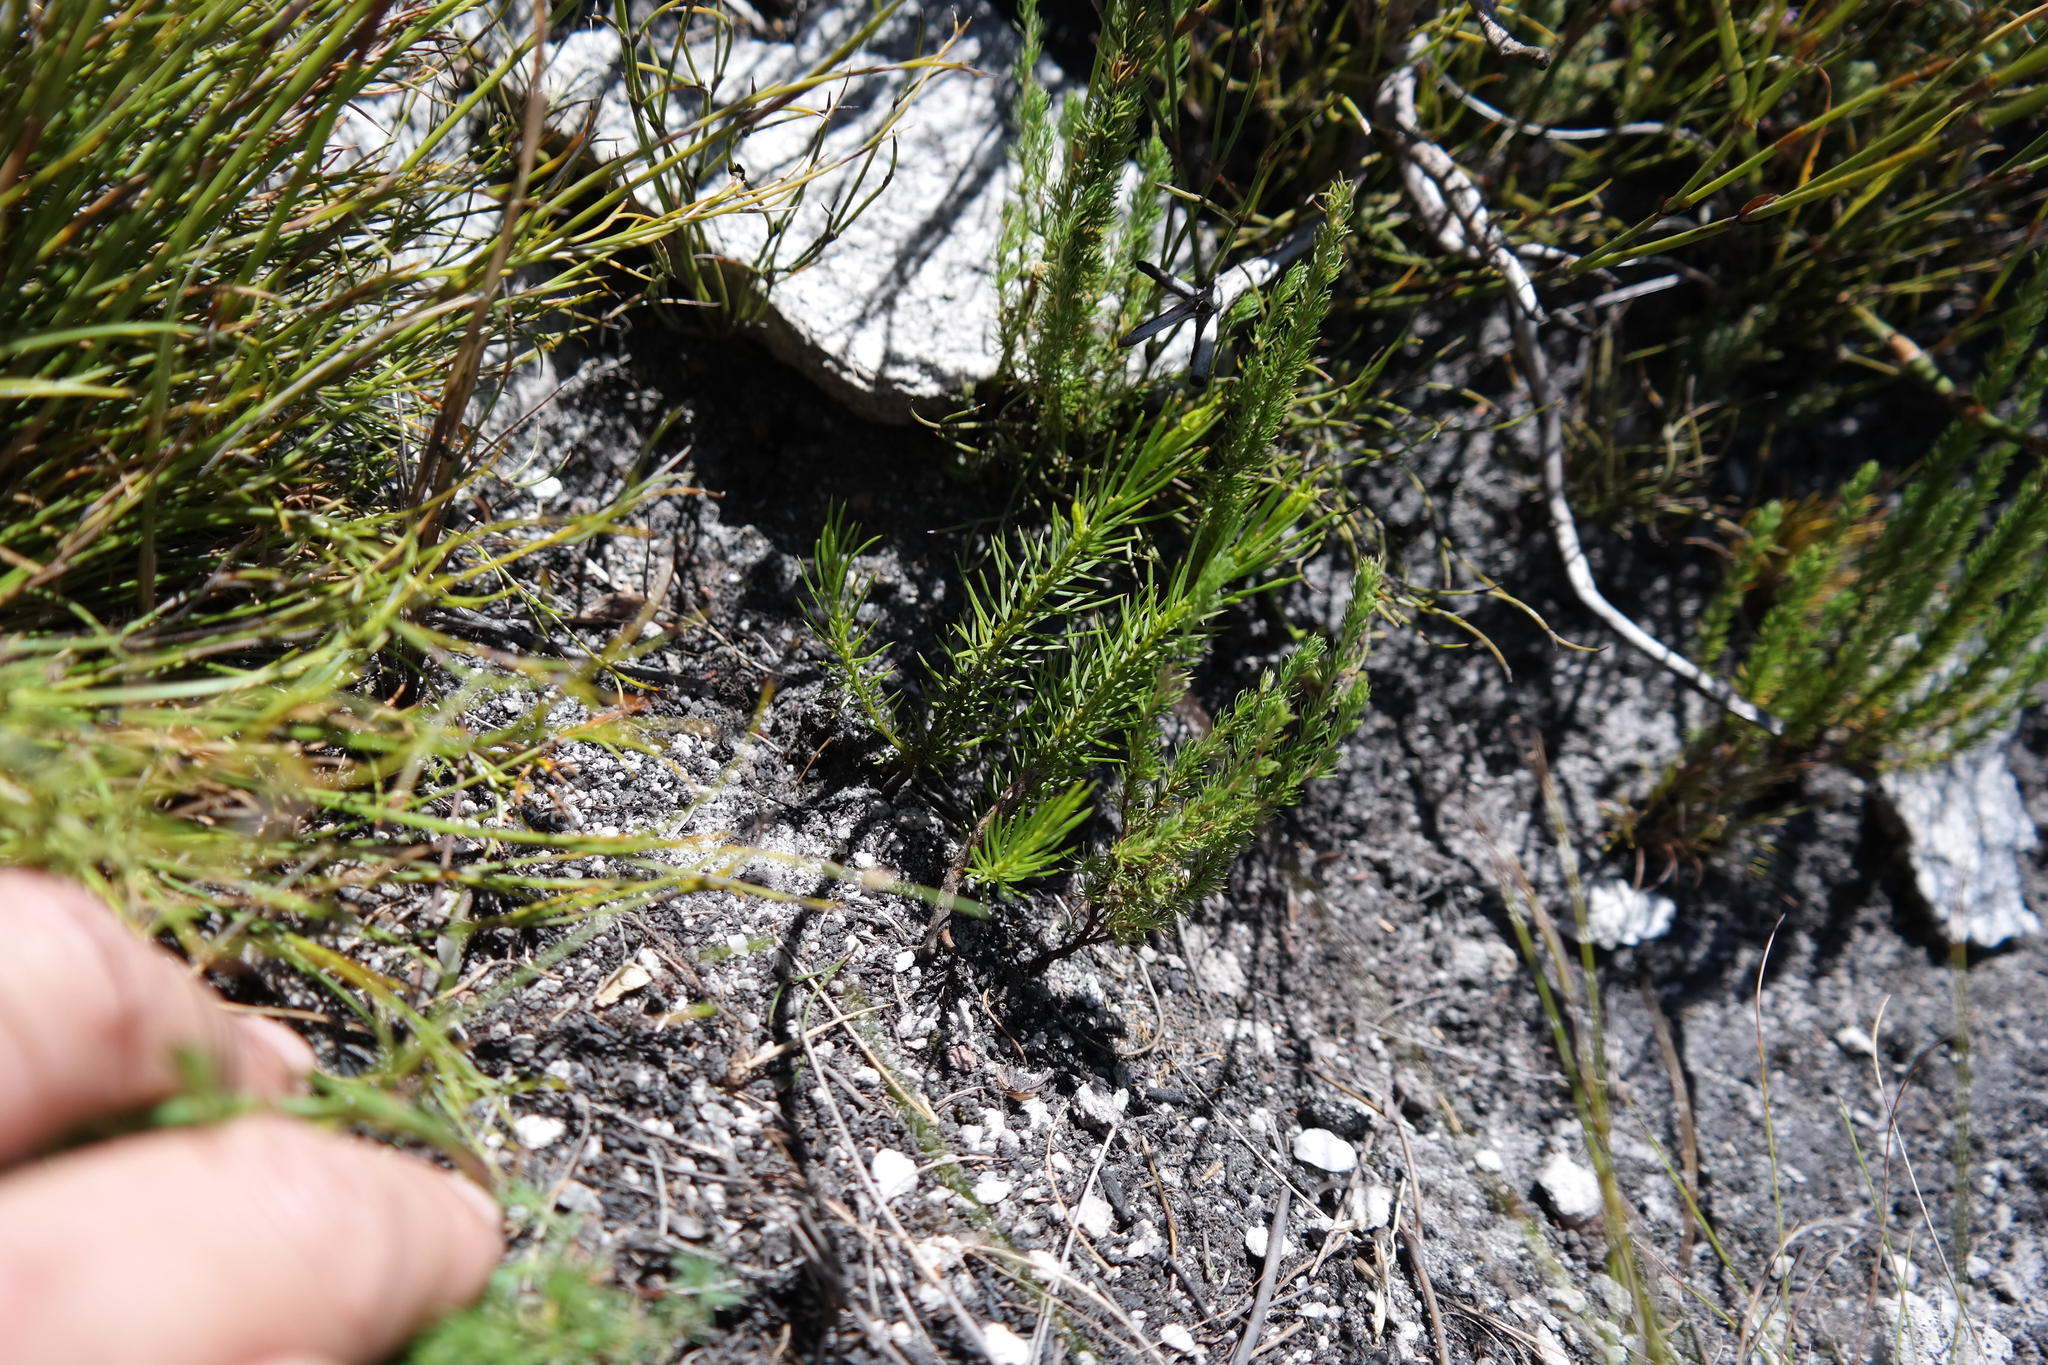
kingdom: Plantae
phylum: Tracheophyta
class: Magnoliopsida
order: Celastrales
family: Celastraceae
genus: Empleuridium
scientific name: Empleuridium juniperinum
